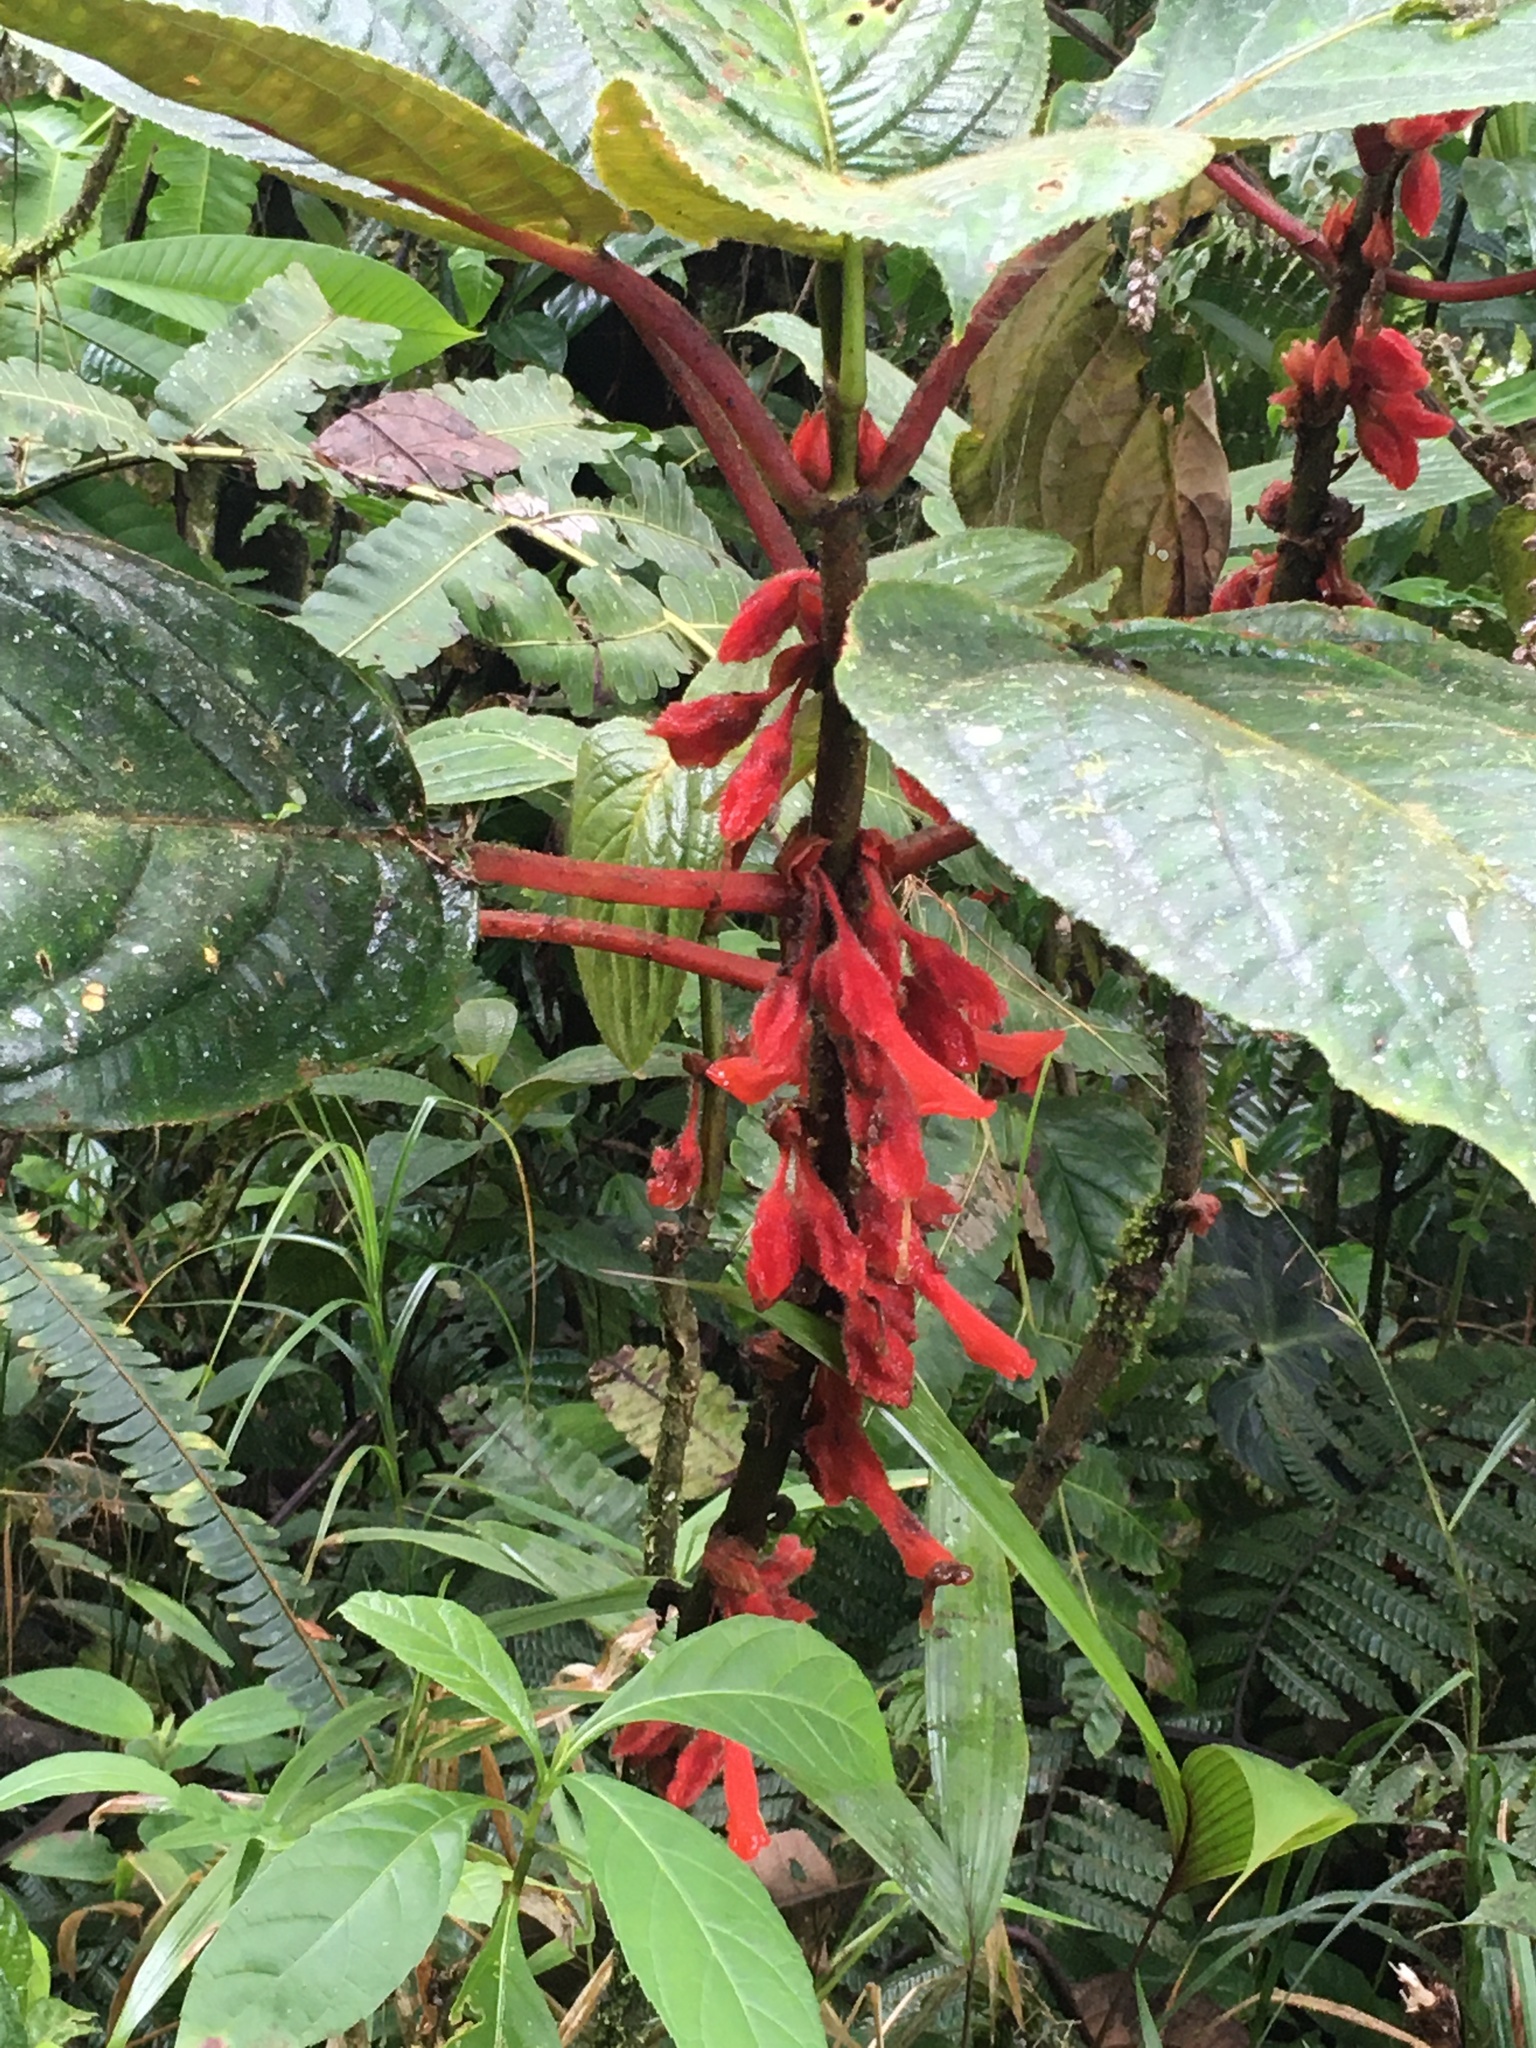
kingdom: Plantae
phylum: Tracheophyta
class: Magnoliopsida
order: Lamiales
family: Gesneriaceae
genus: Glossoloma
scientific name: Glossoloma panamense
